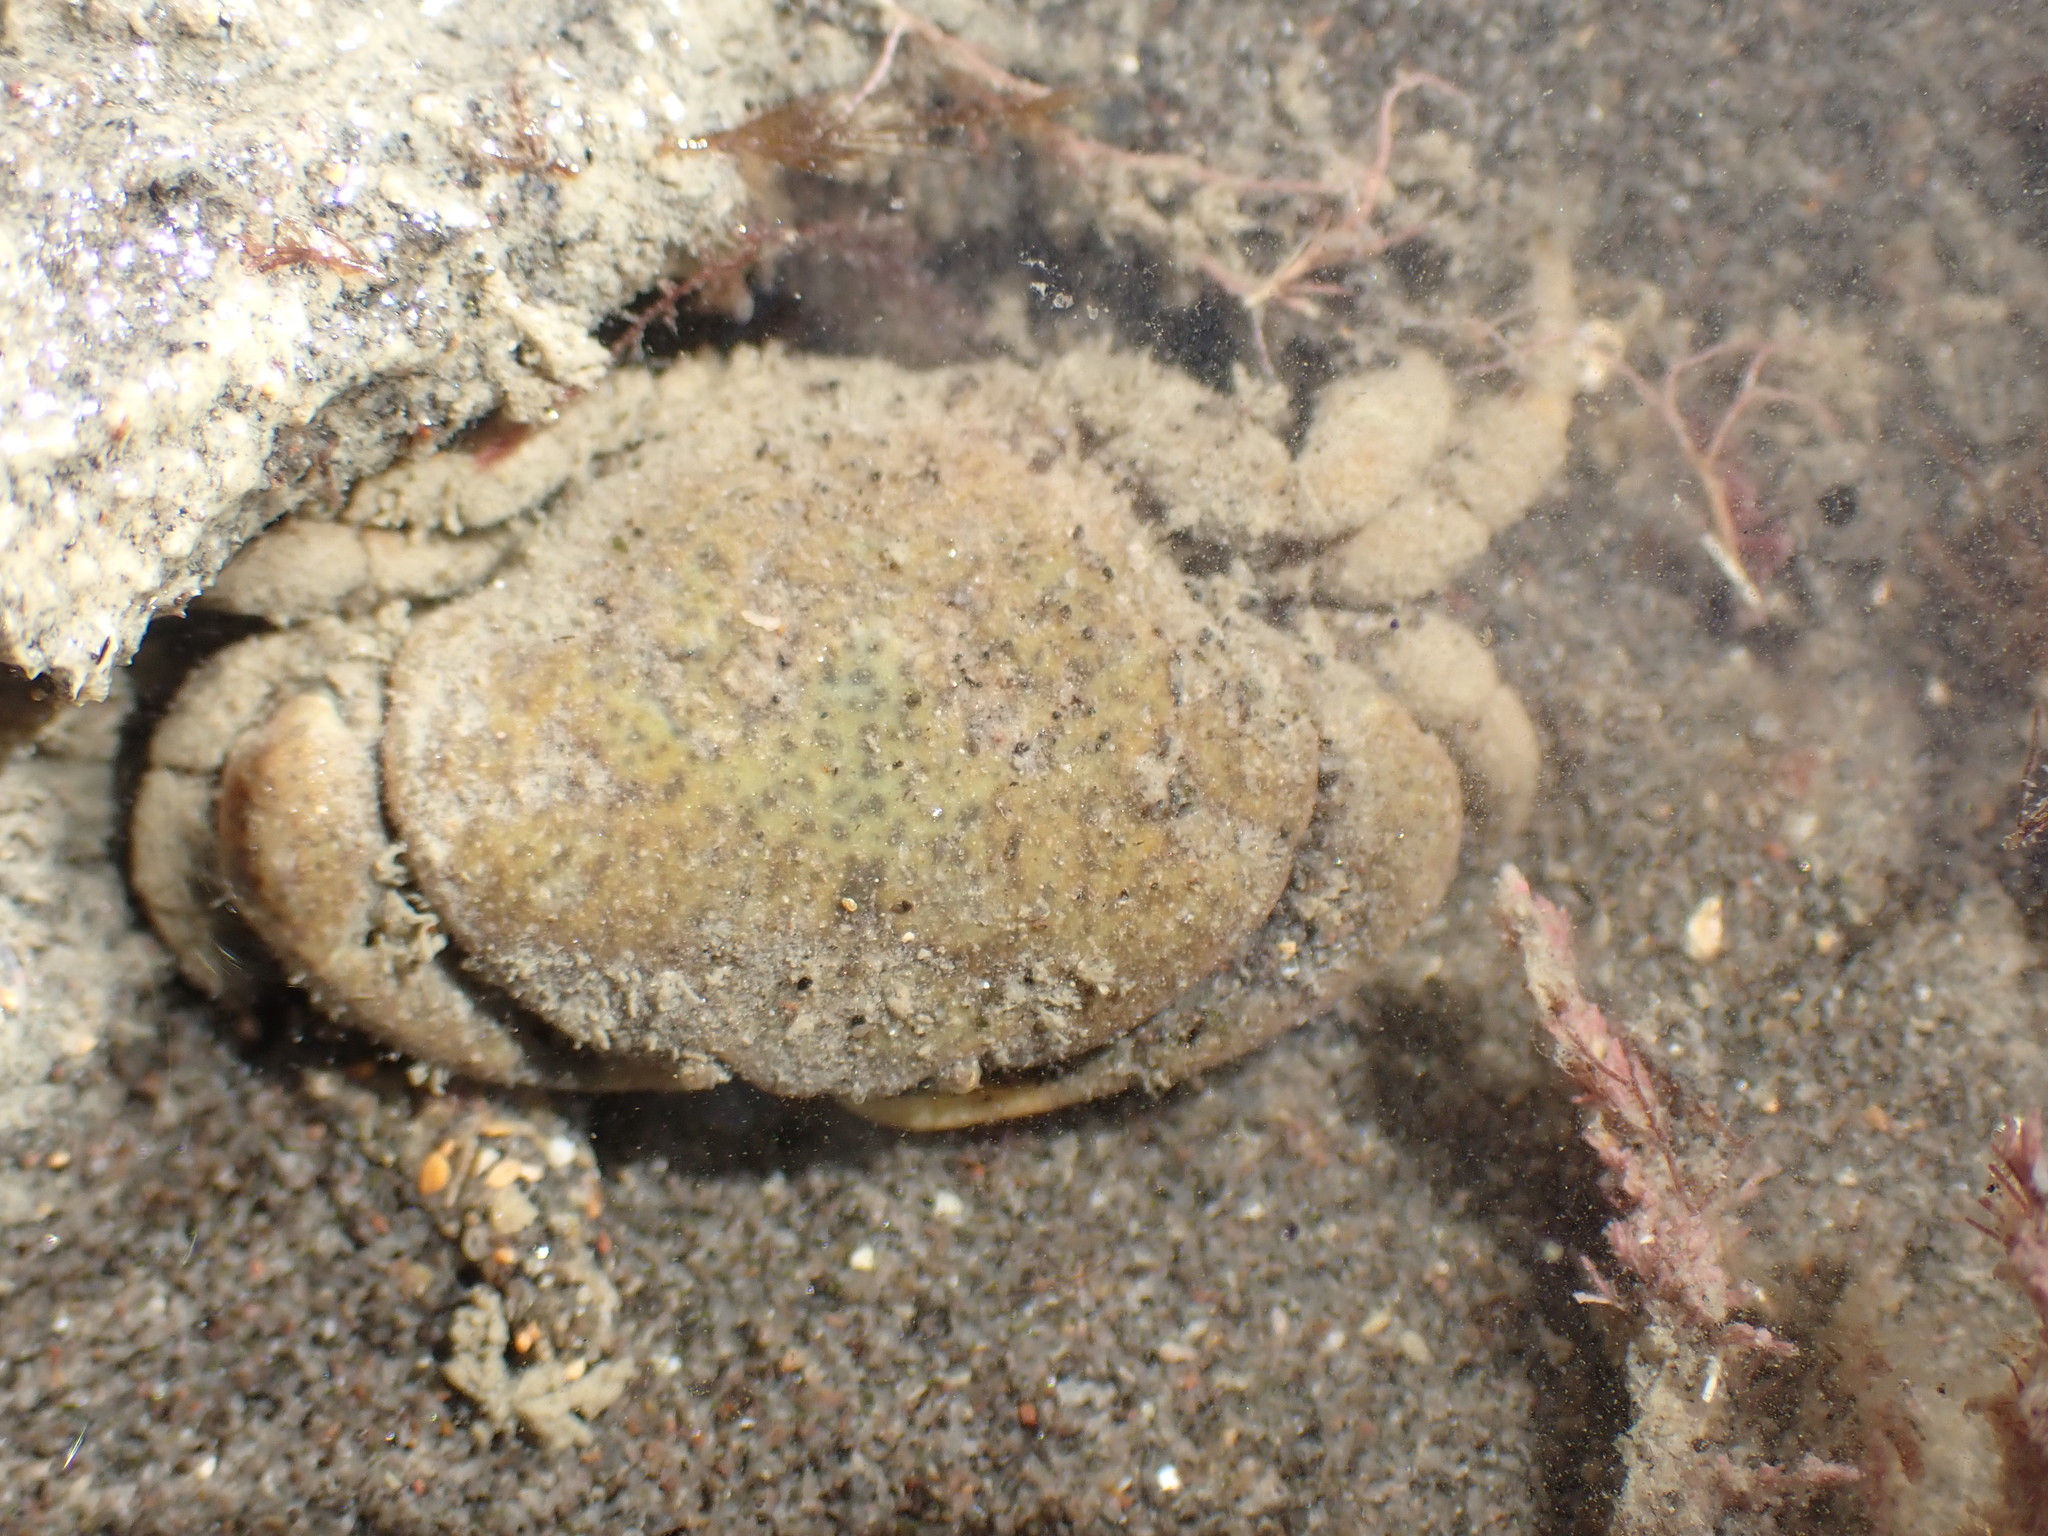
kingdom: Animalia
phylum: Arthropoda
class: Malacostraca
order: Decapoda
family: Heteroziidae
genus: Heterozius
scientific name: Heterozius rotundifrons
